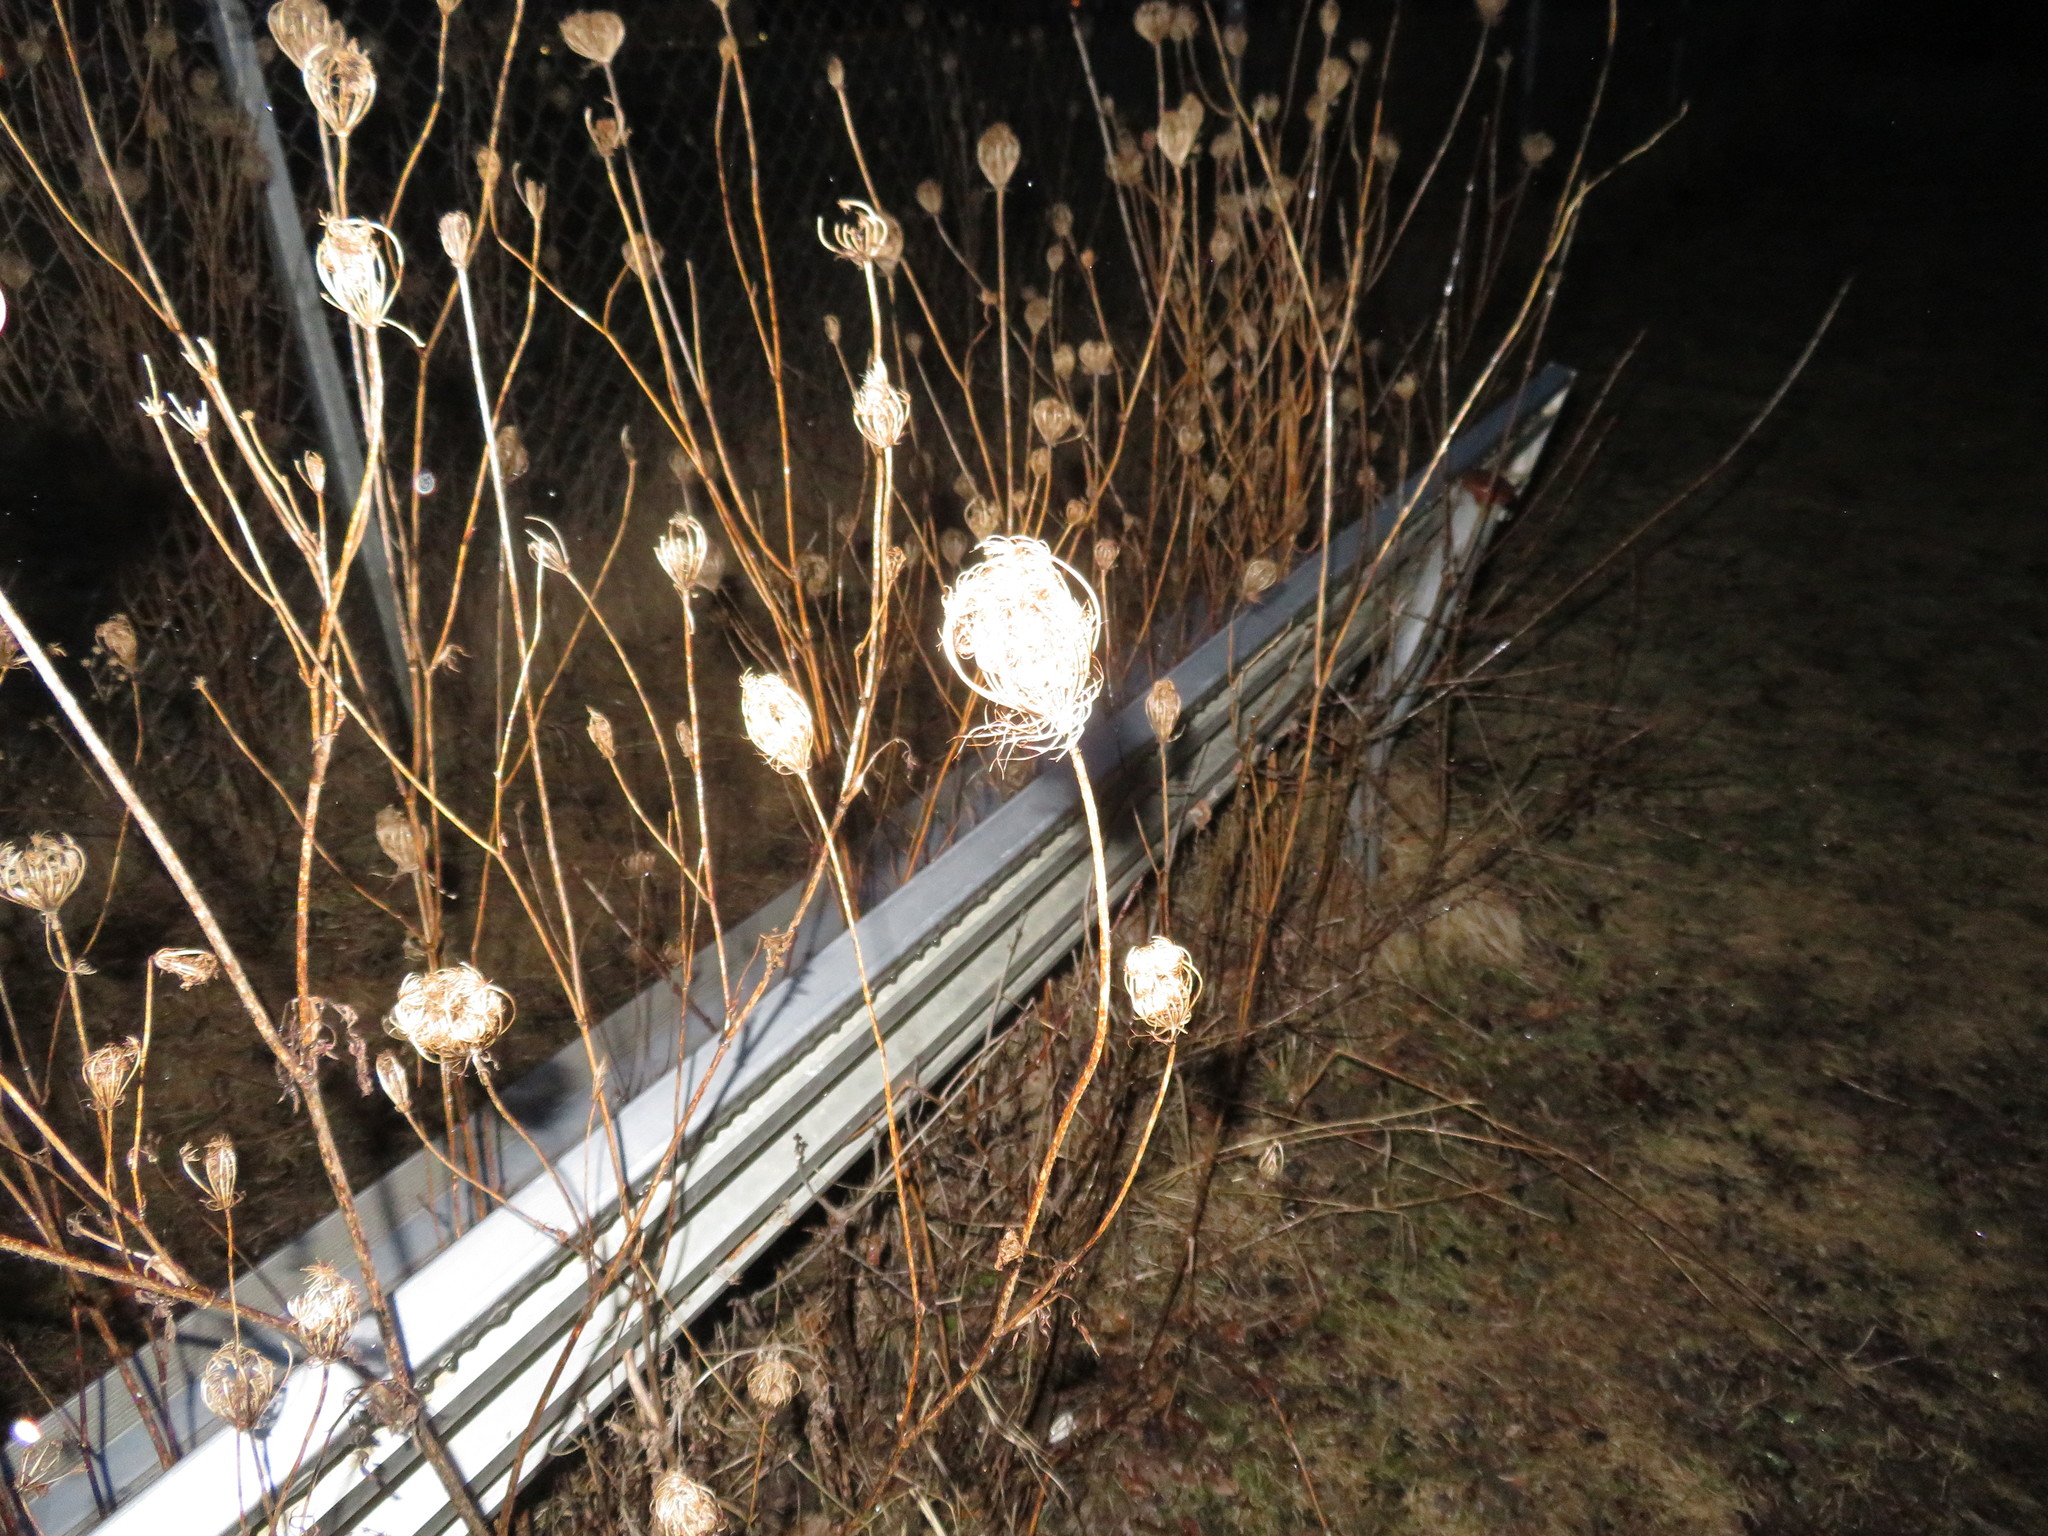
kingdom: Plantae
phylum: Tracheophyta
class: Magnoliopsida
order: Apiales
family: Apiaceae
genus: Daucus
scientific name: Daucus carota
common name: Wild carrot
